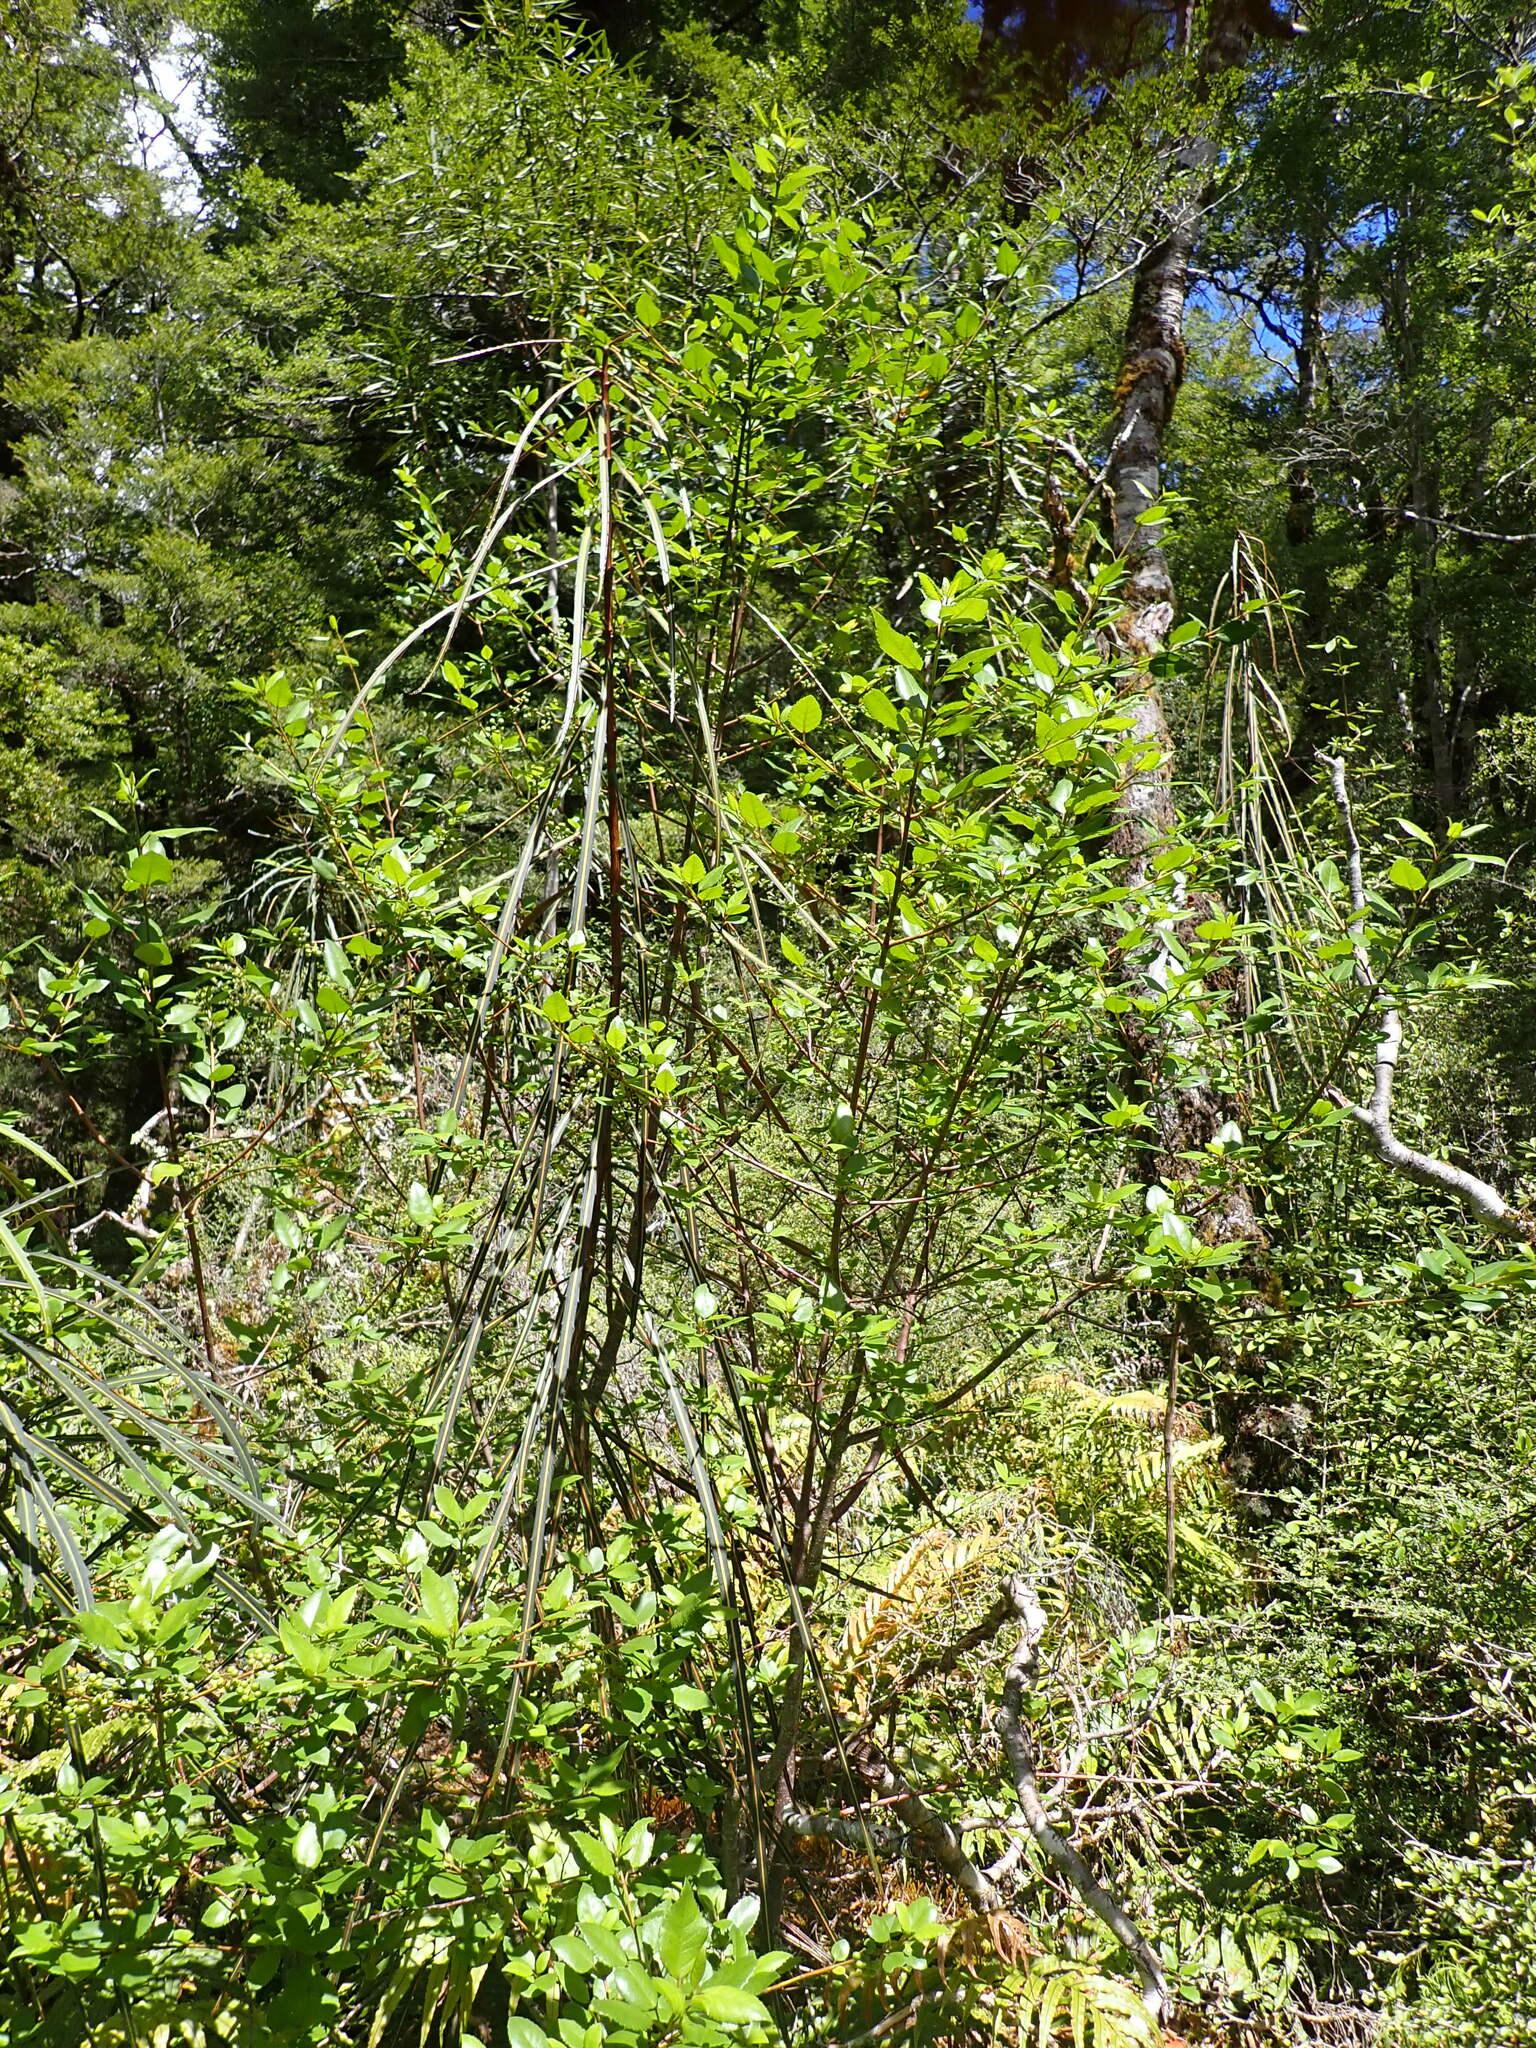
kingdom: Plantae
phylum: Tracheophyta
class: Magnoliopsida
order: Oxalidales
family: Elaeocarpaceae
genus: Aristotelia
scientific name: Aristotelia
